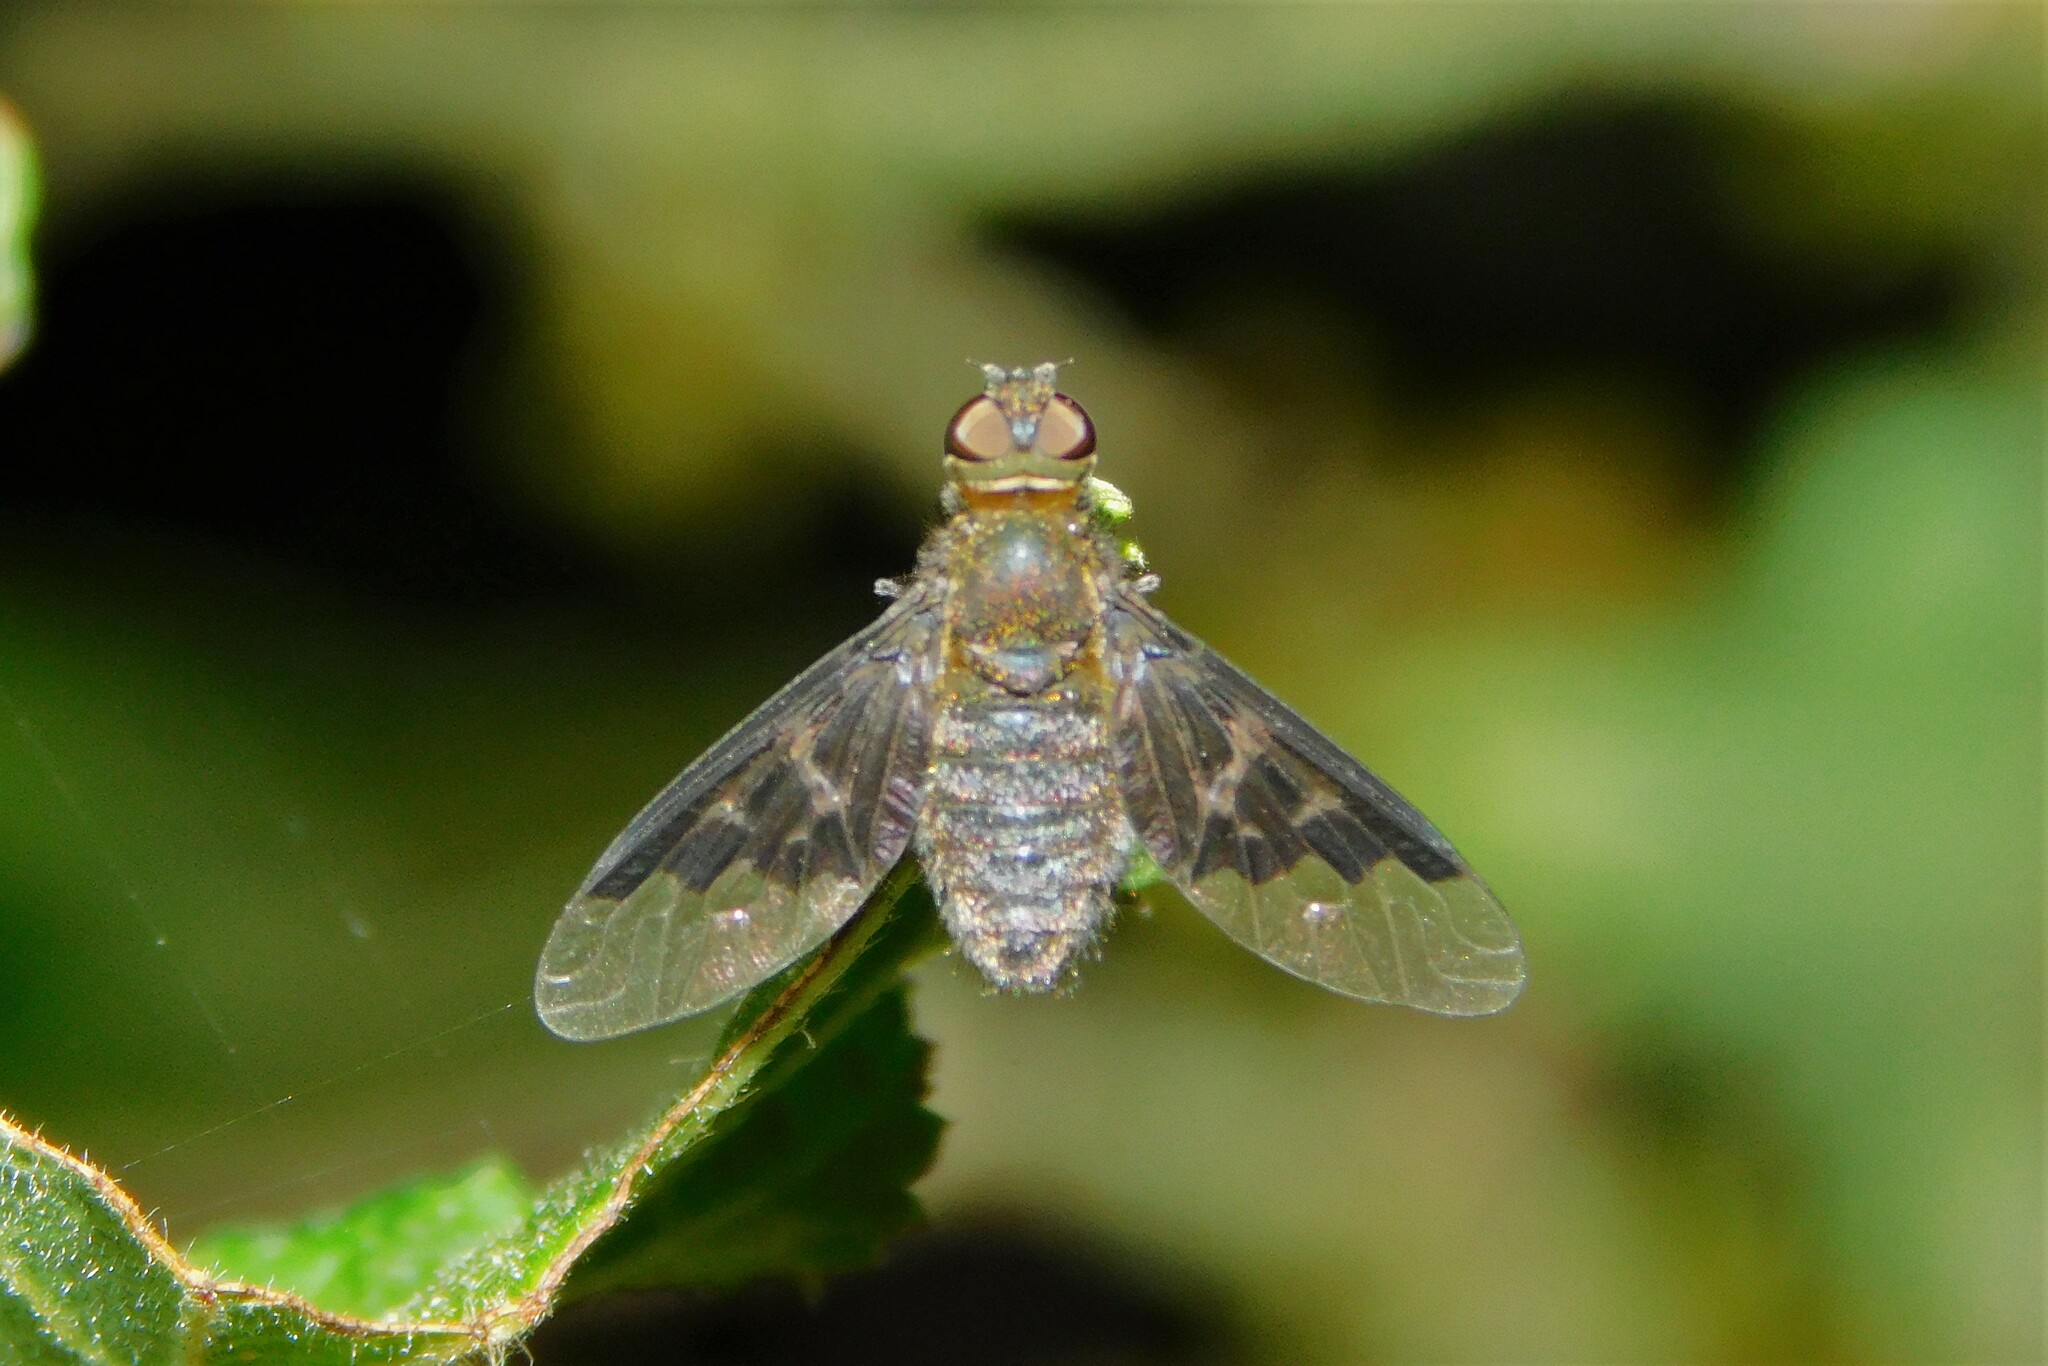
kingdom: Animalia
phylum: Arthropoda
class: Insecta
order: Diptera
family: Bombyliidae
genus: Hemipenthes
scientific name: Hemipenthes morio
